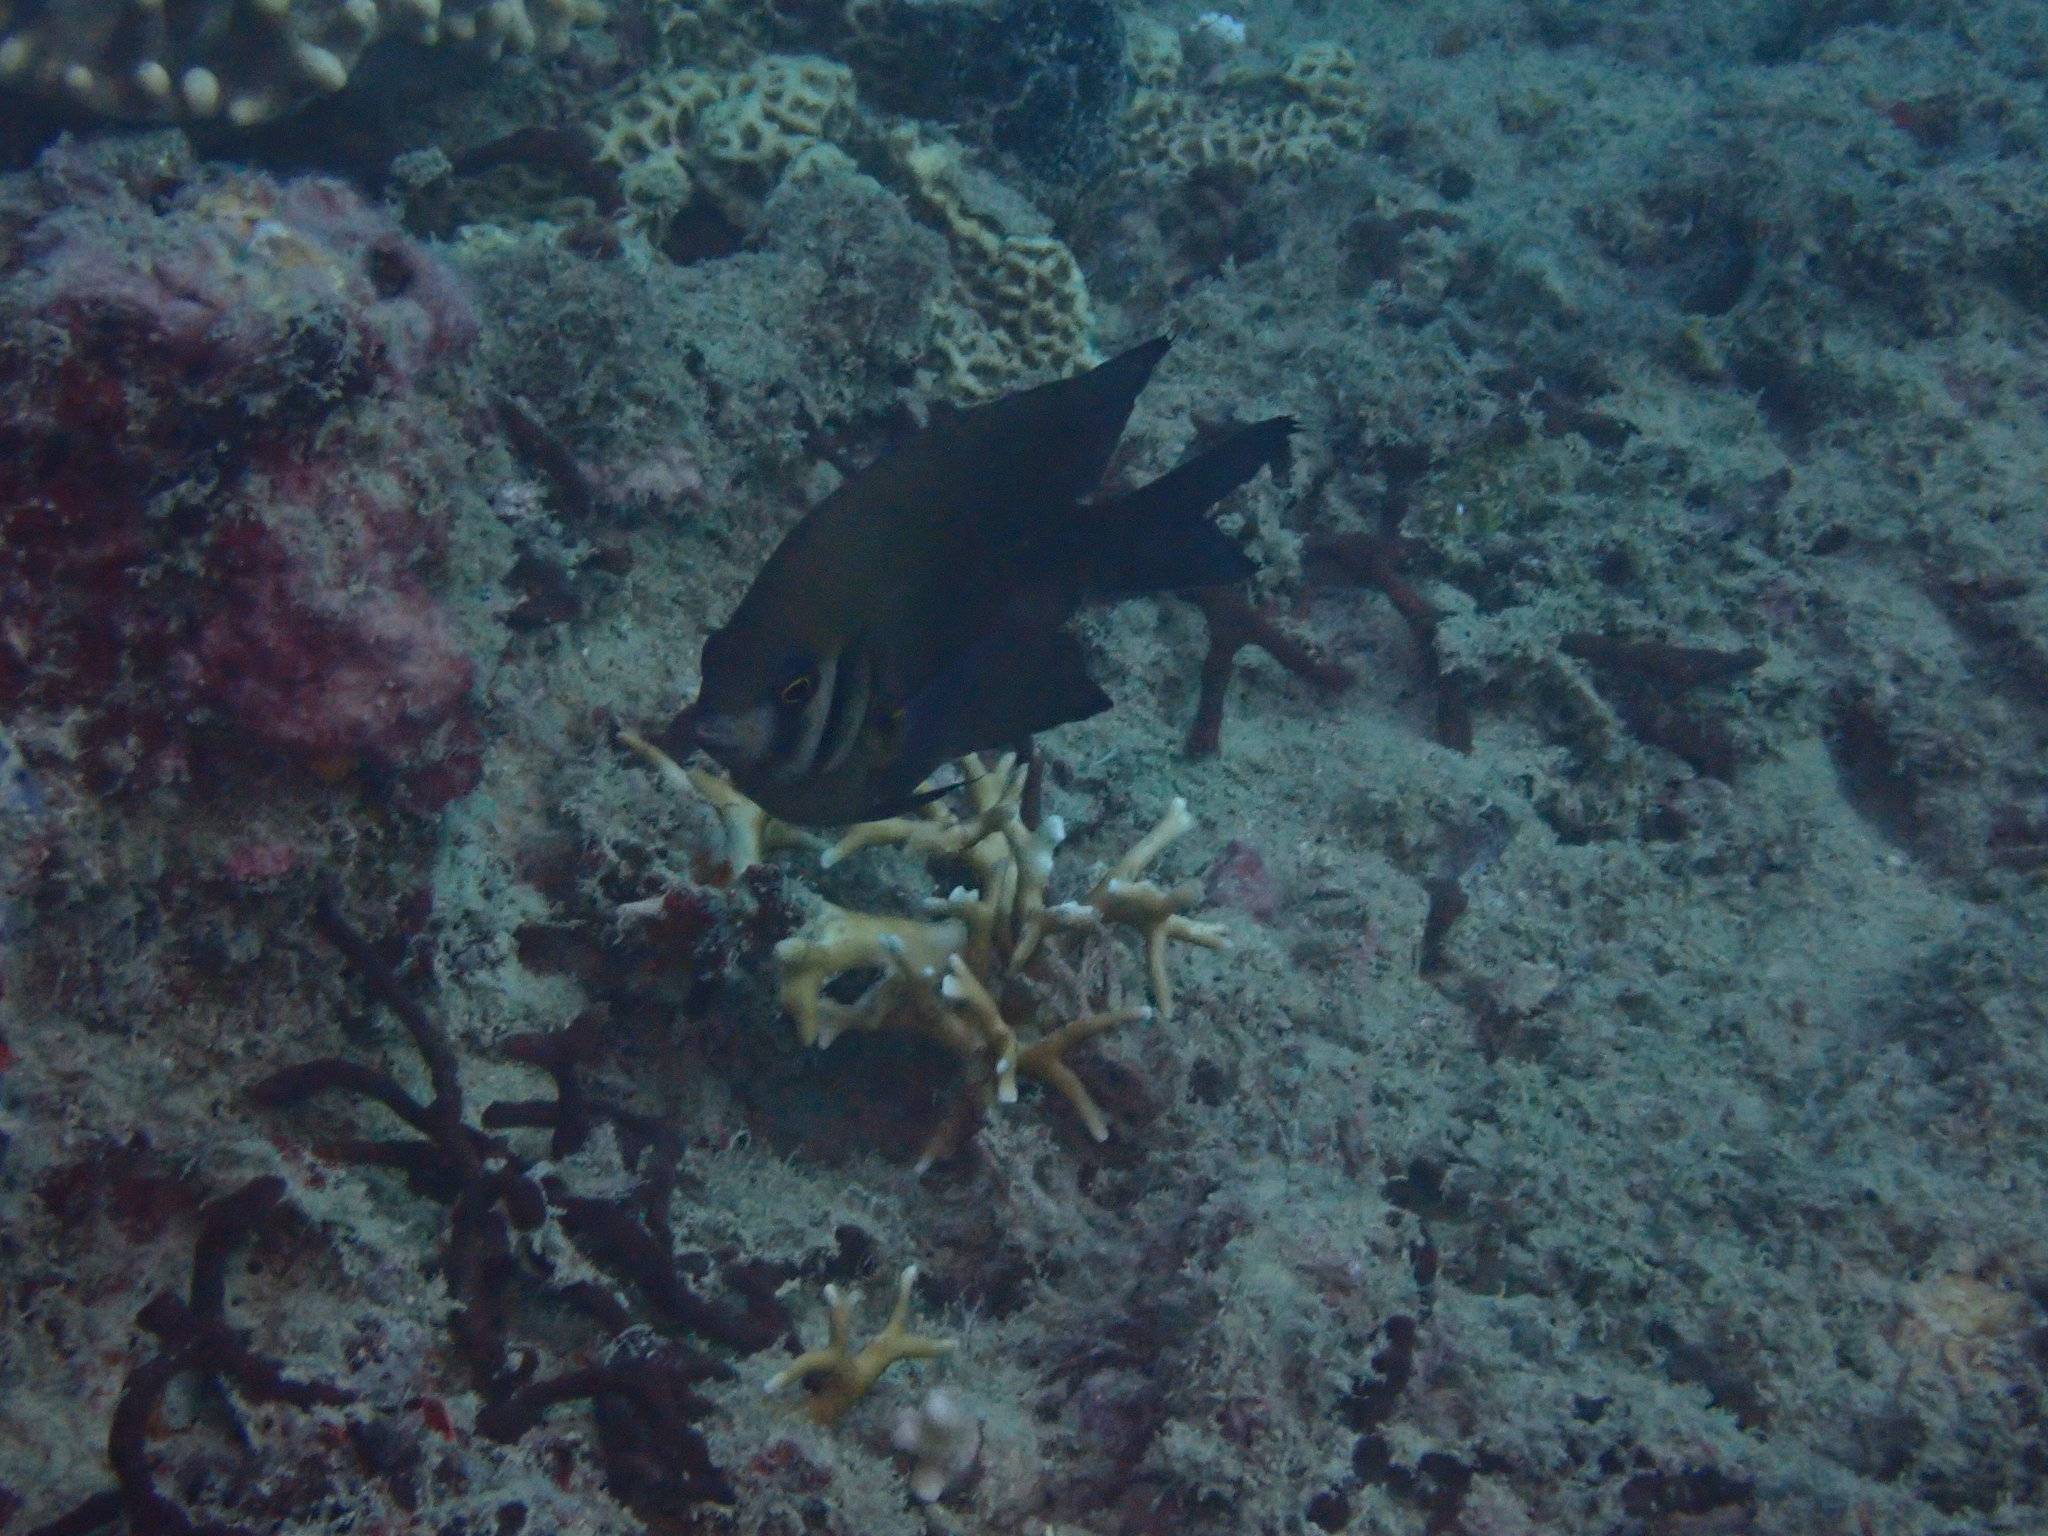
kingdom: Animalia
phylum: Chordata
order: Perciformes
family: Pomacentridae
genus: Neoglyphidodon
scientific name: Neoglyphidodon nigroris
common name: Behn's damsel
